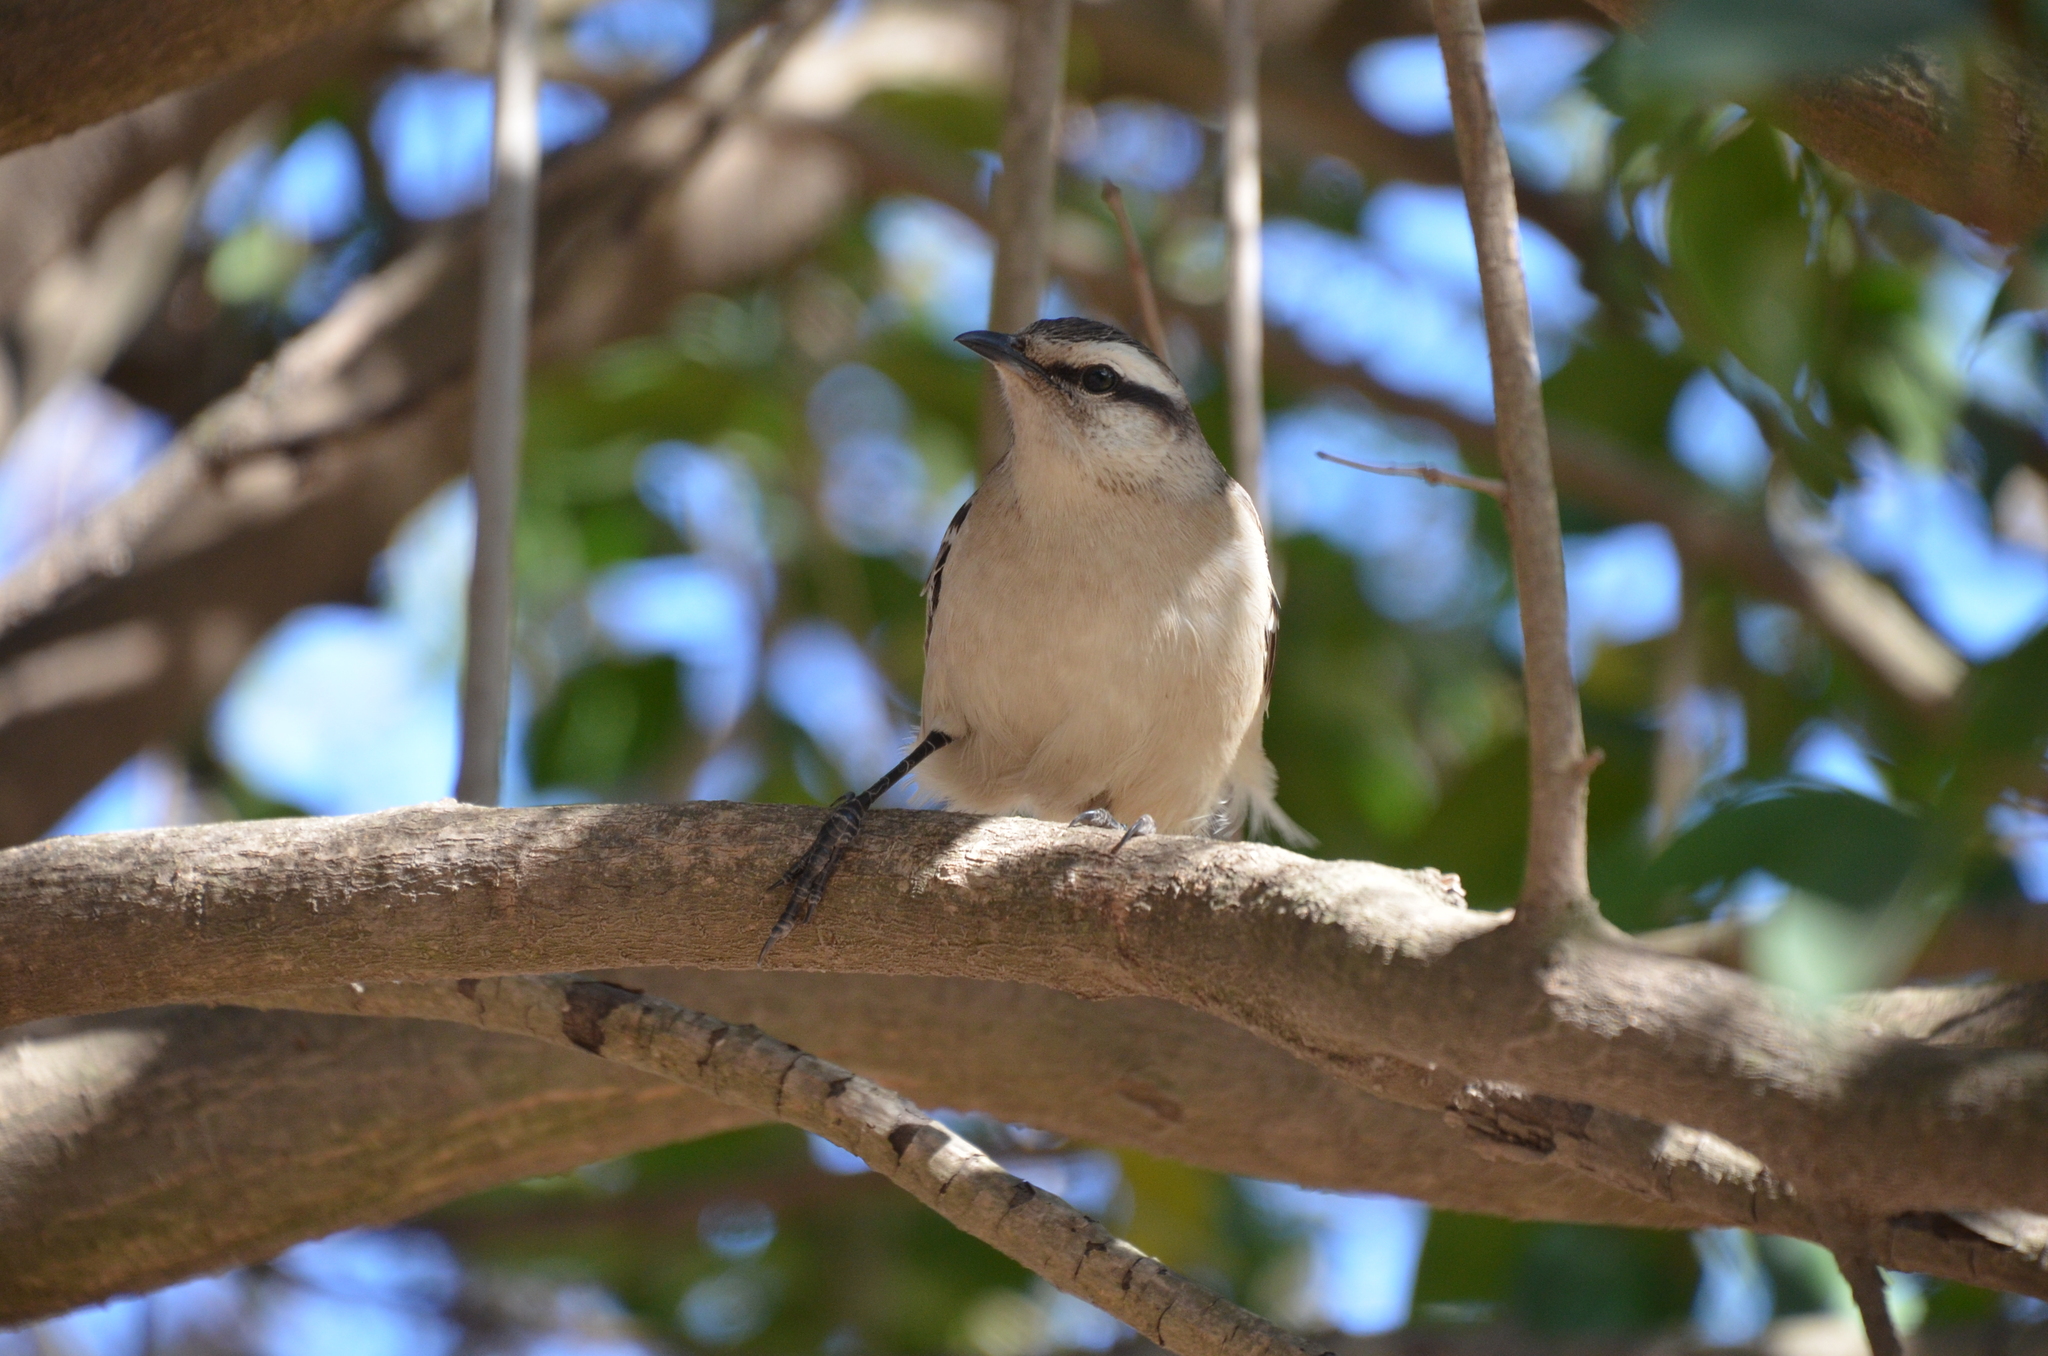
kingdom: Animalia
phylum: Chordata
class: Aves
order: Passeriformes
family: Mimidae
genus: Mimus
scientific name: Mimus saturninus
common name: Chalk-browed mockingbird
